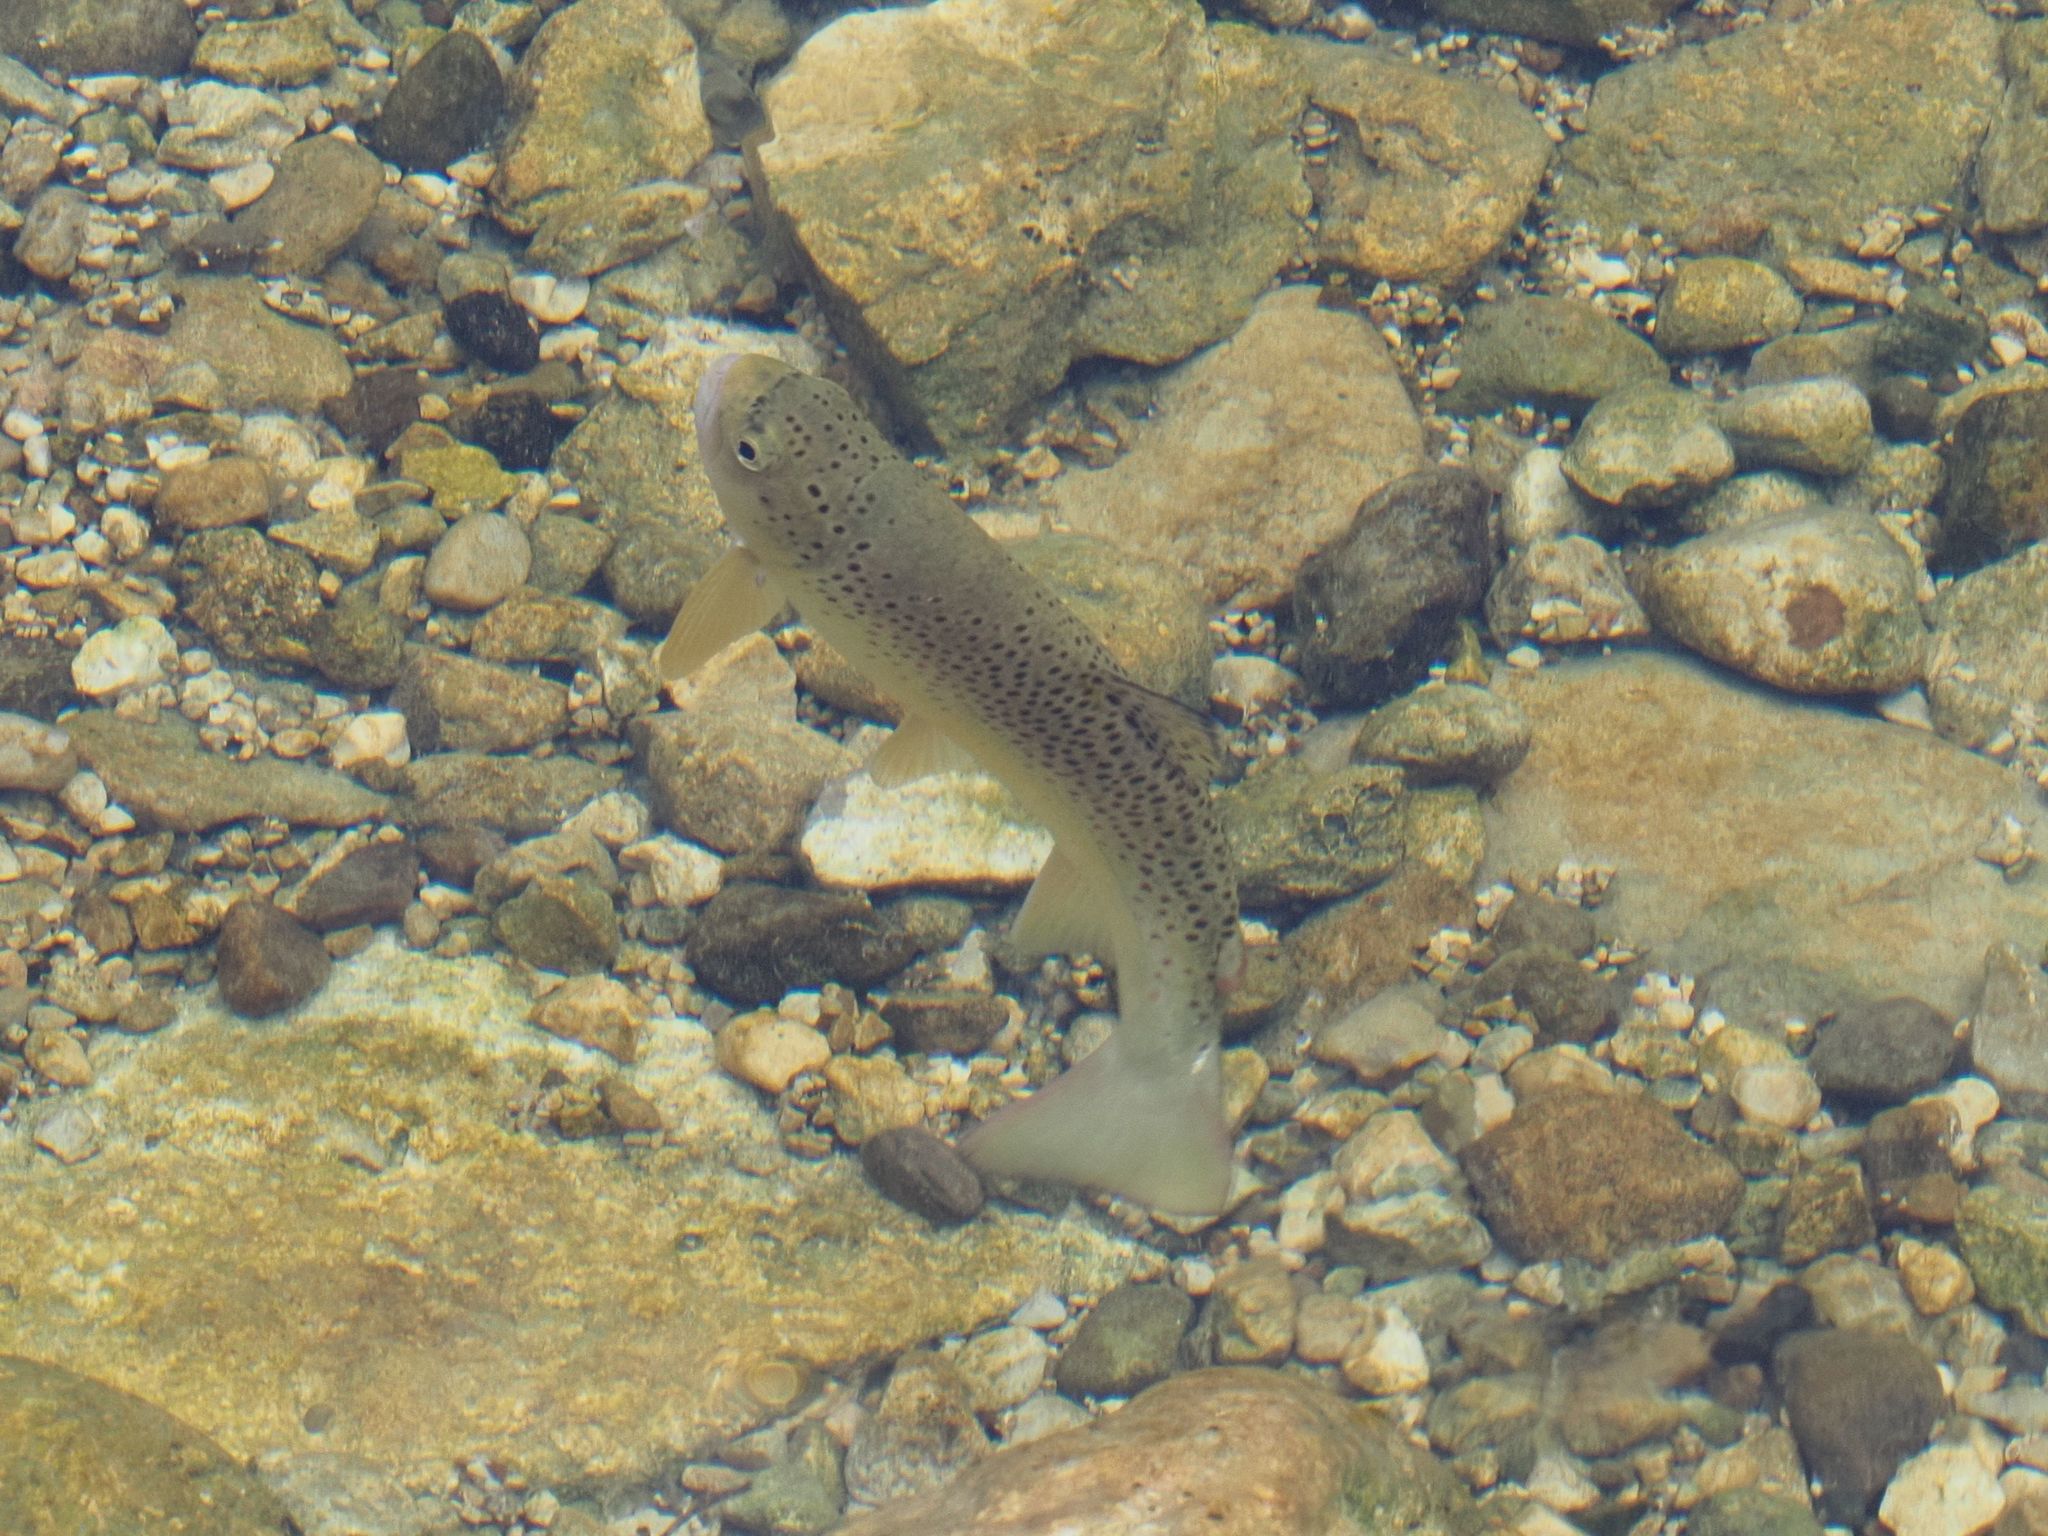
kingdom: Animalia
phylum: Chordata
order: Salmoniformes
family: Salmonidae
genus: Salmo
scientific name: Salmo trutta
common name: Brown trout
